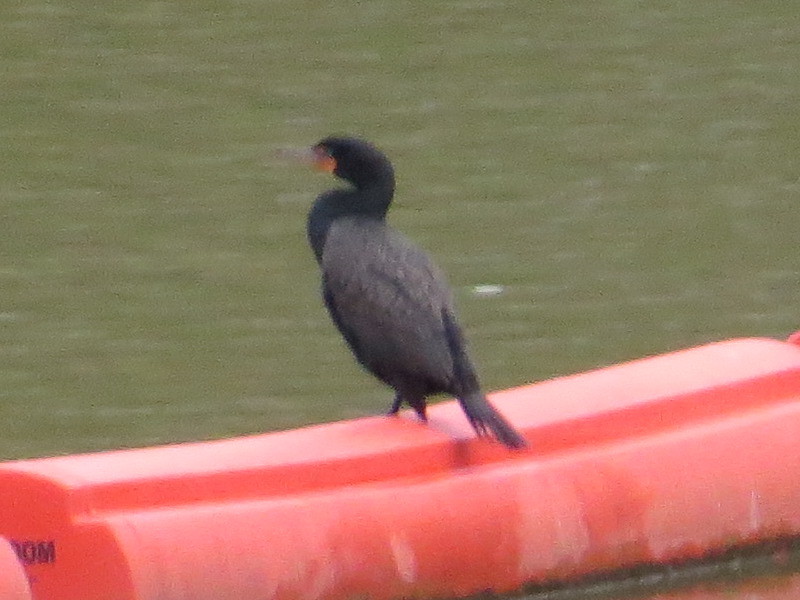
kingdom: Animalia
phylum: Chordata
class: Aves
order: Suliformes
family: Phalacrocoracidae
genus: Phalacrocorax
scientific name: Phalacrocorax auritus
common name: Double-crested cormorant
